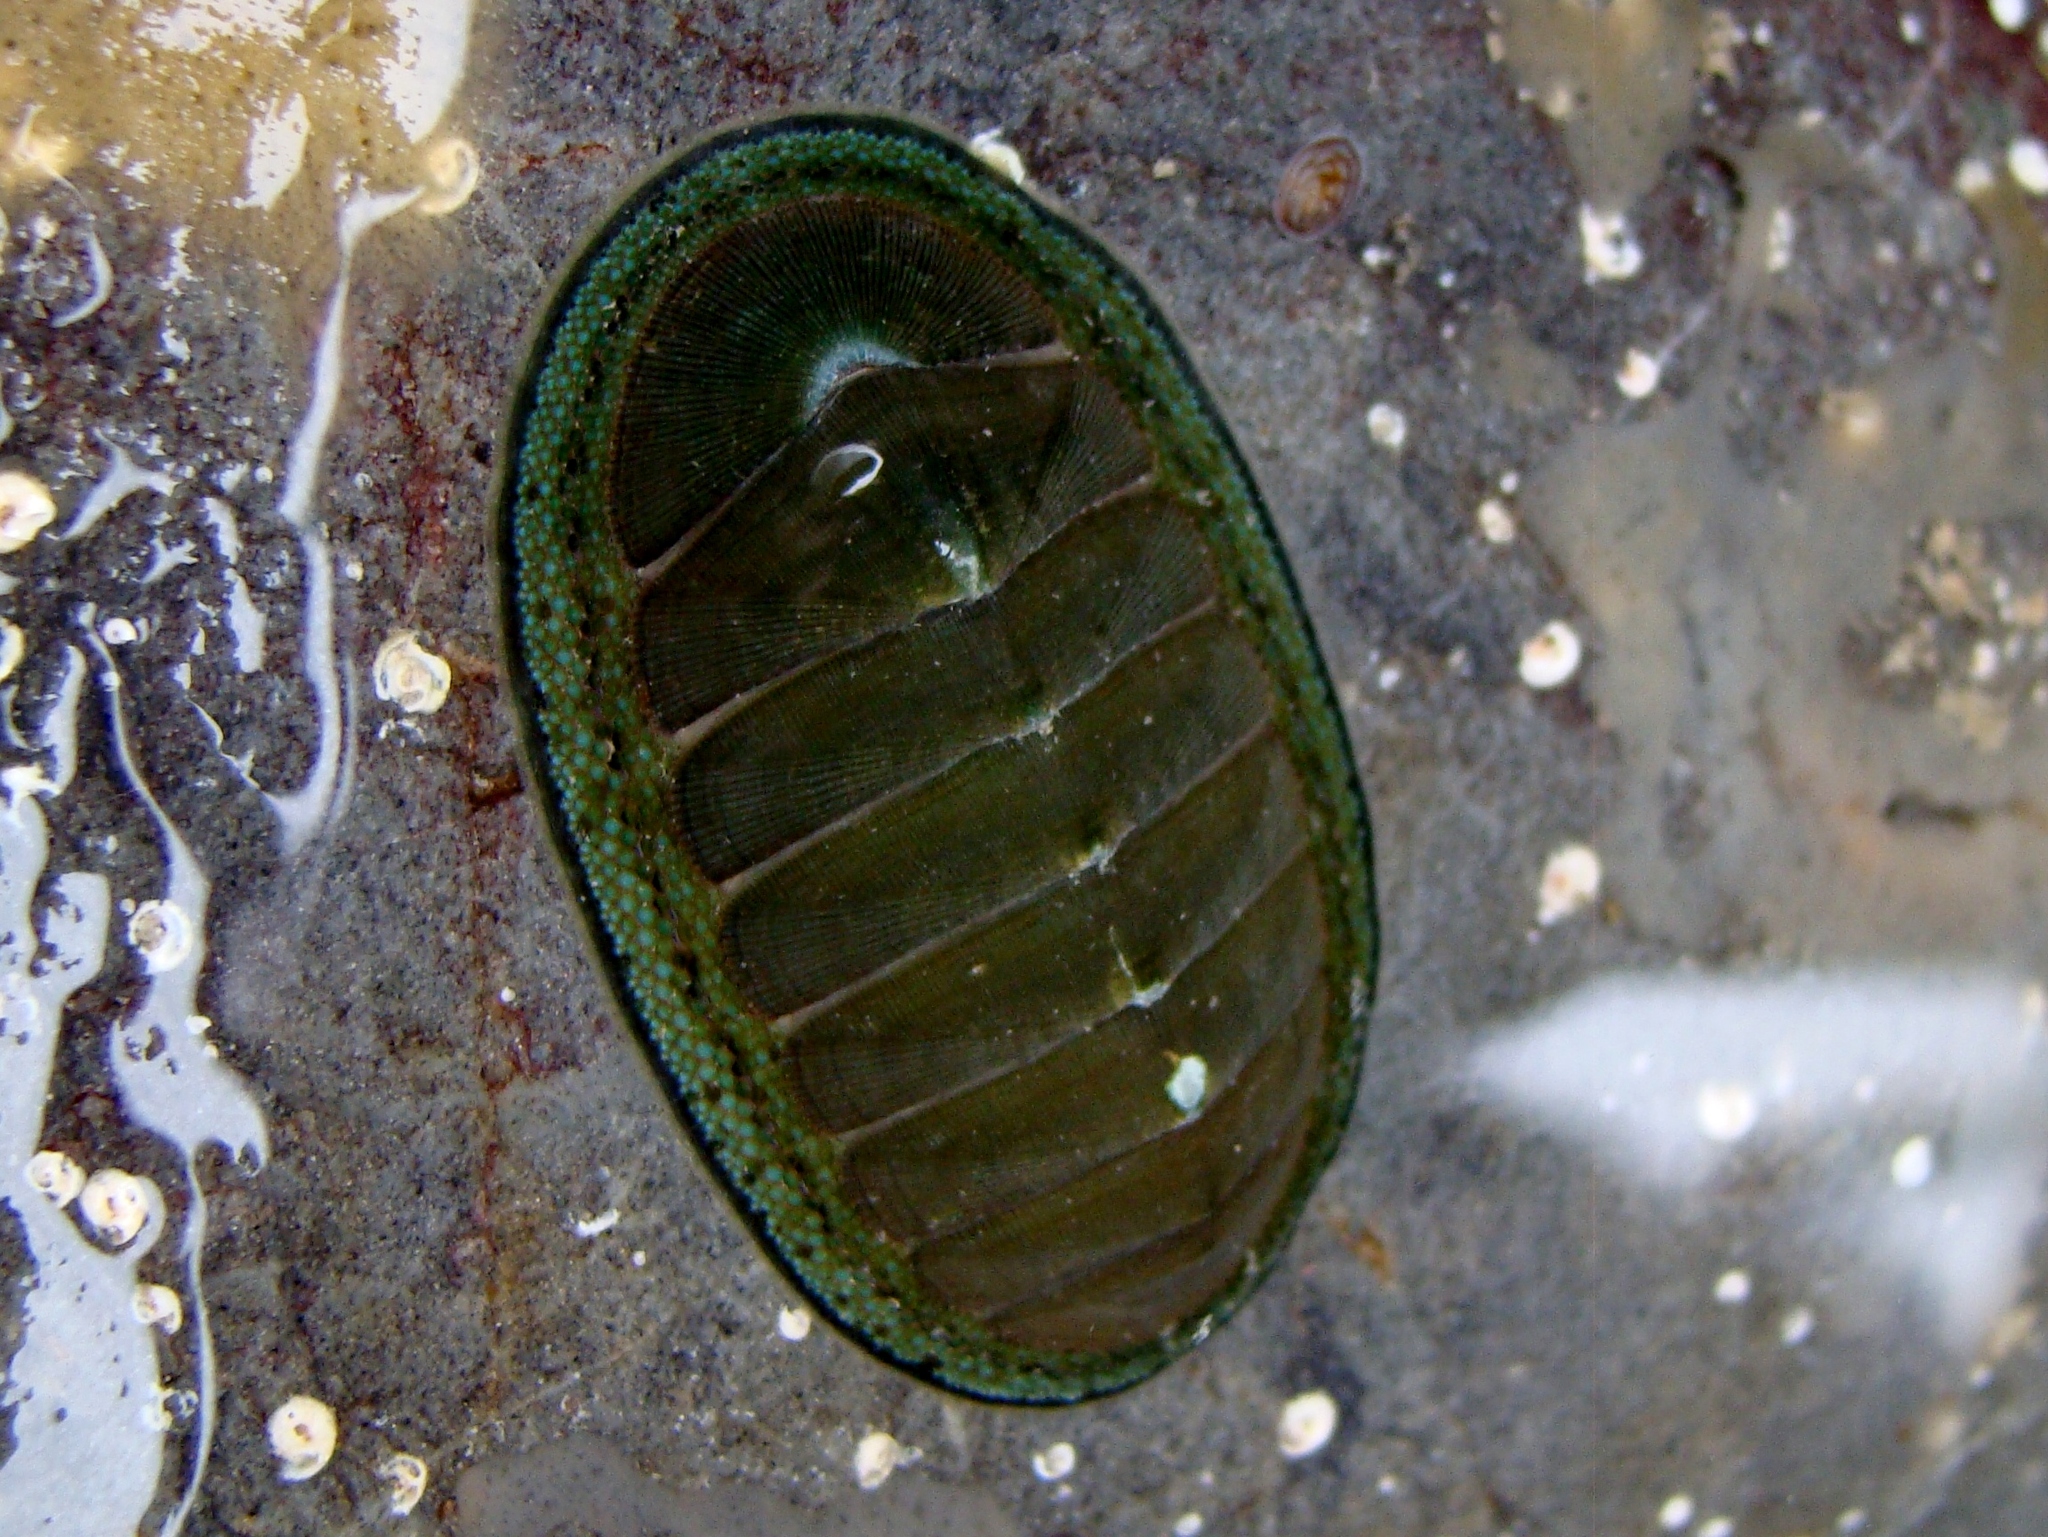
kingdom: Animalia
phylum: Mollusca
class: Polyplacophora
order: Chitonida
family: Chitonidae
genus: Chiton
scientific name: Chiton glaucus
